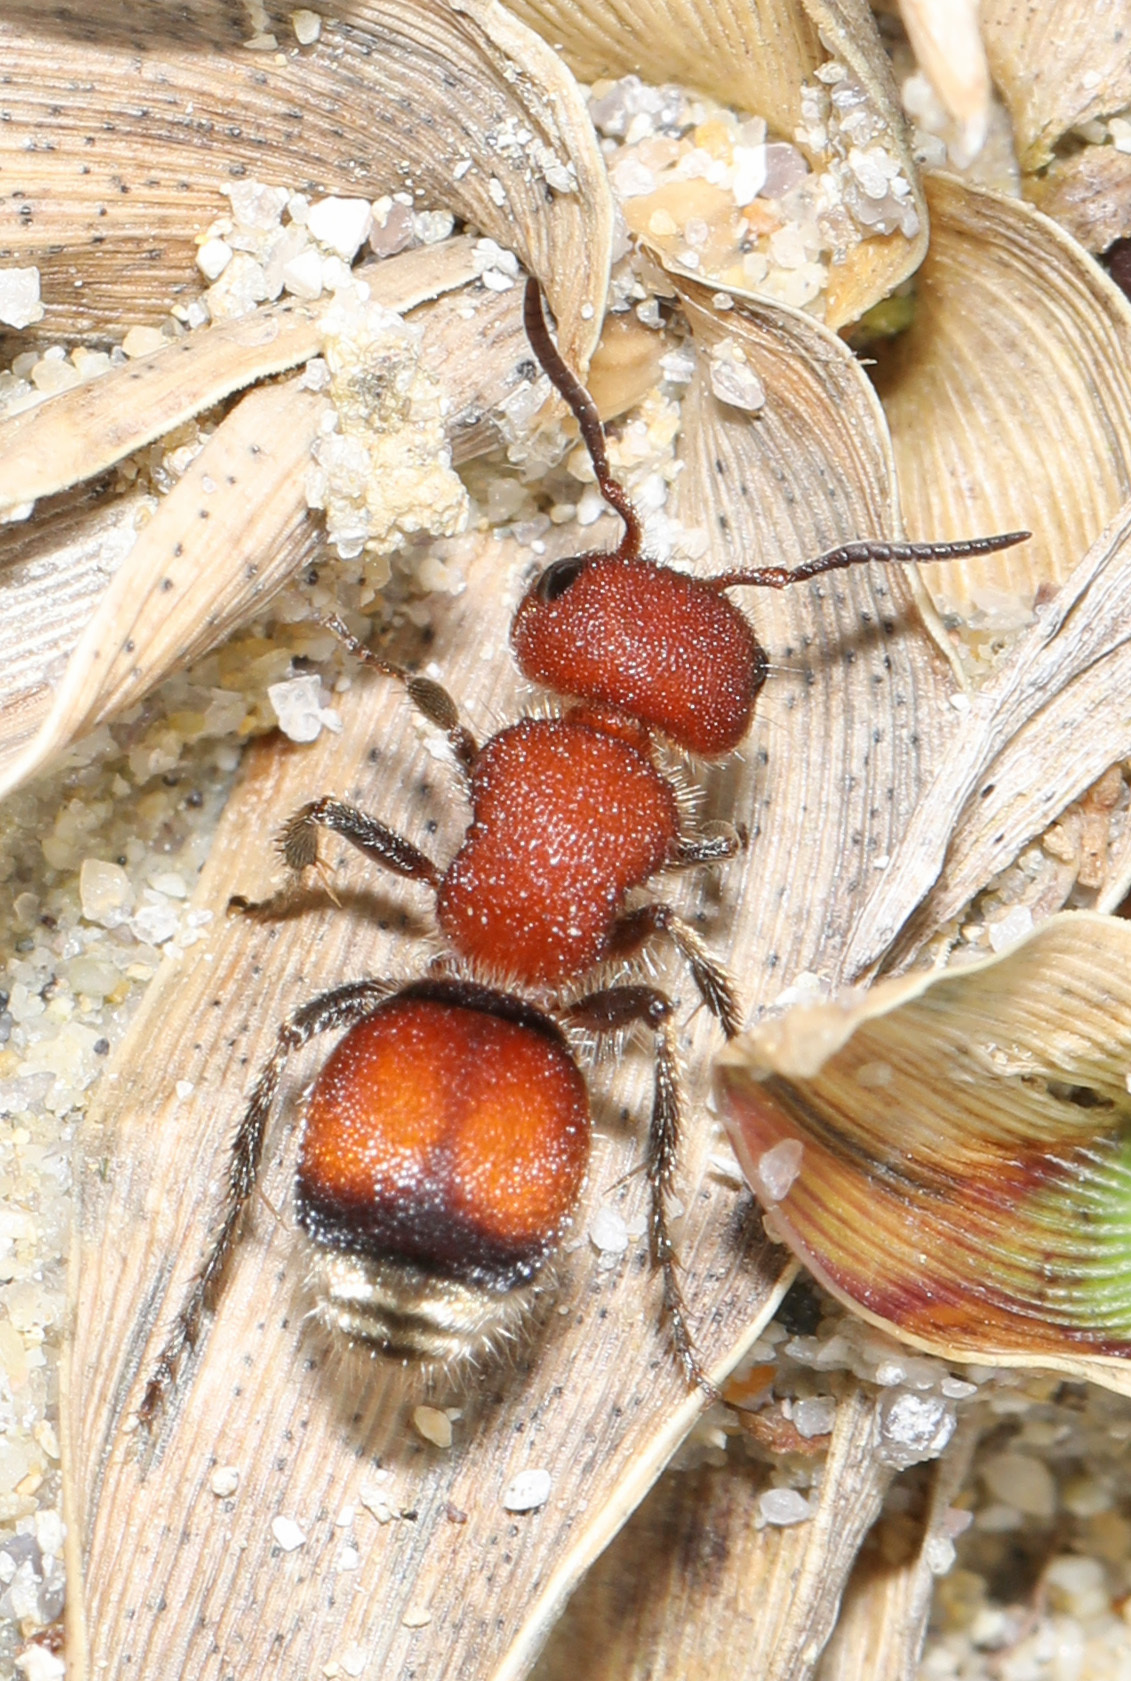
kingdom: Animalia
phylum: Arthropoda
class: Insecta
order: Hymenoptera
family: Mutillidae
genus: Pseudomethoca
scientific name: Pseudomethoca
